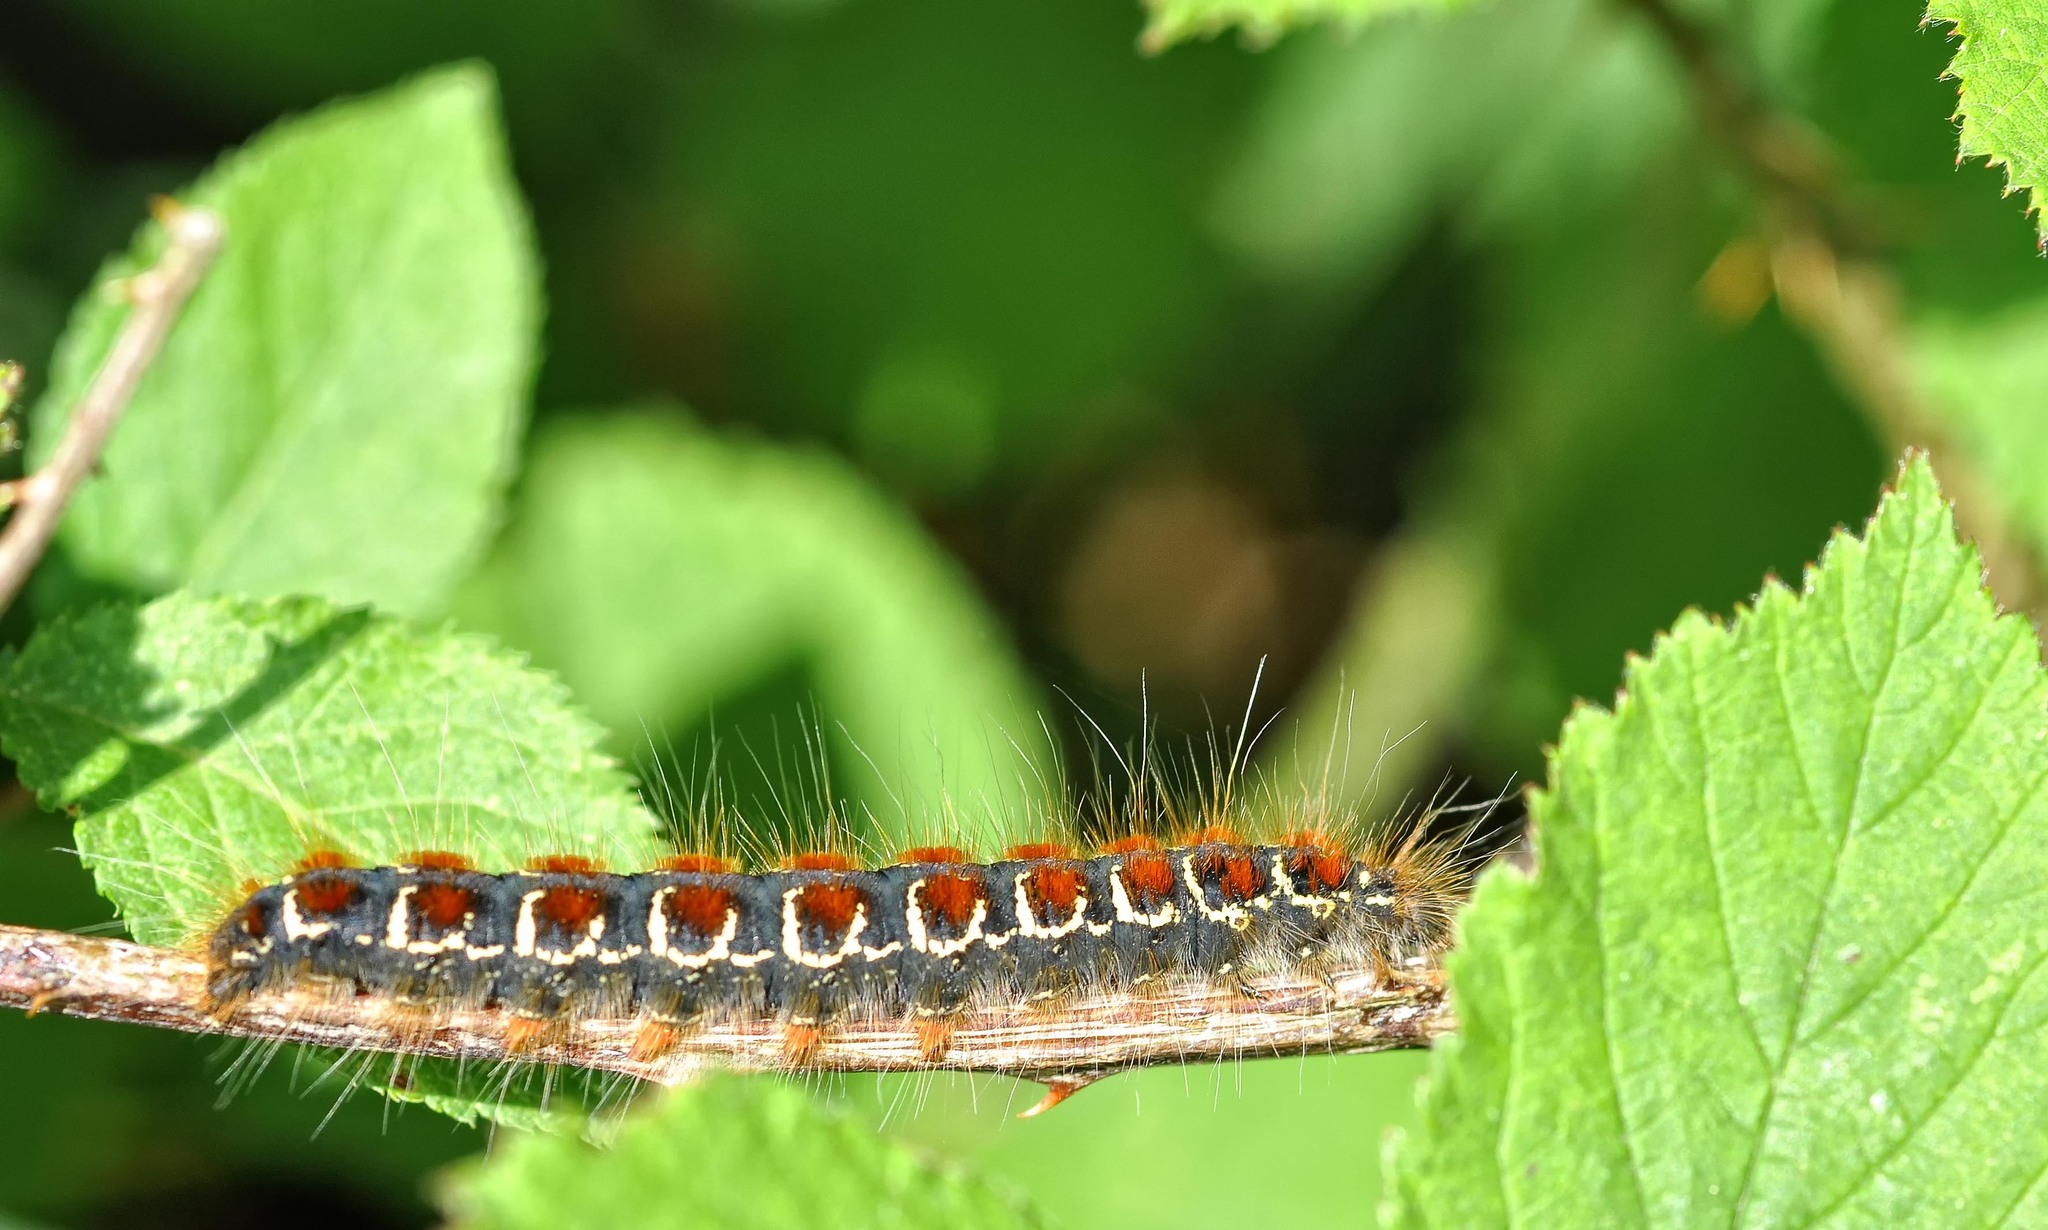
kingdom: Animalia
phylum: Arthropoda
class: Insecta
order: Lepidoptera
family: Lasiocampidae
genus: Eriogaster
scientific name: Eriogaster lanestris
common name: Small eggar
